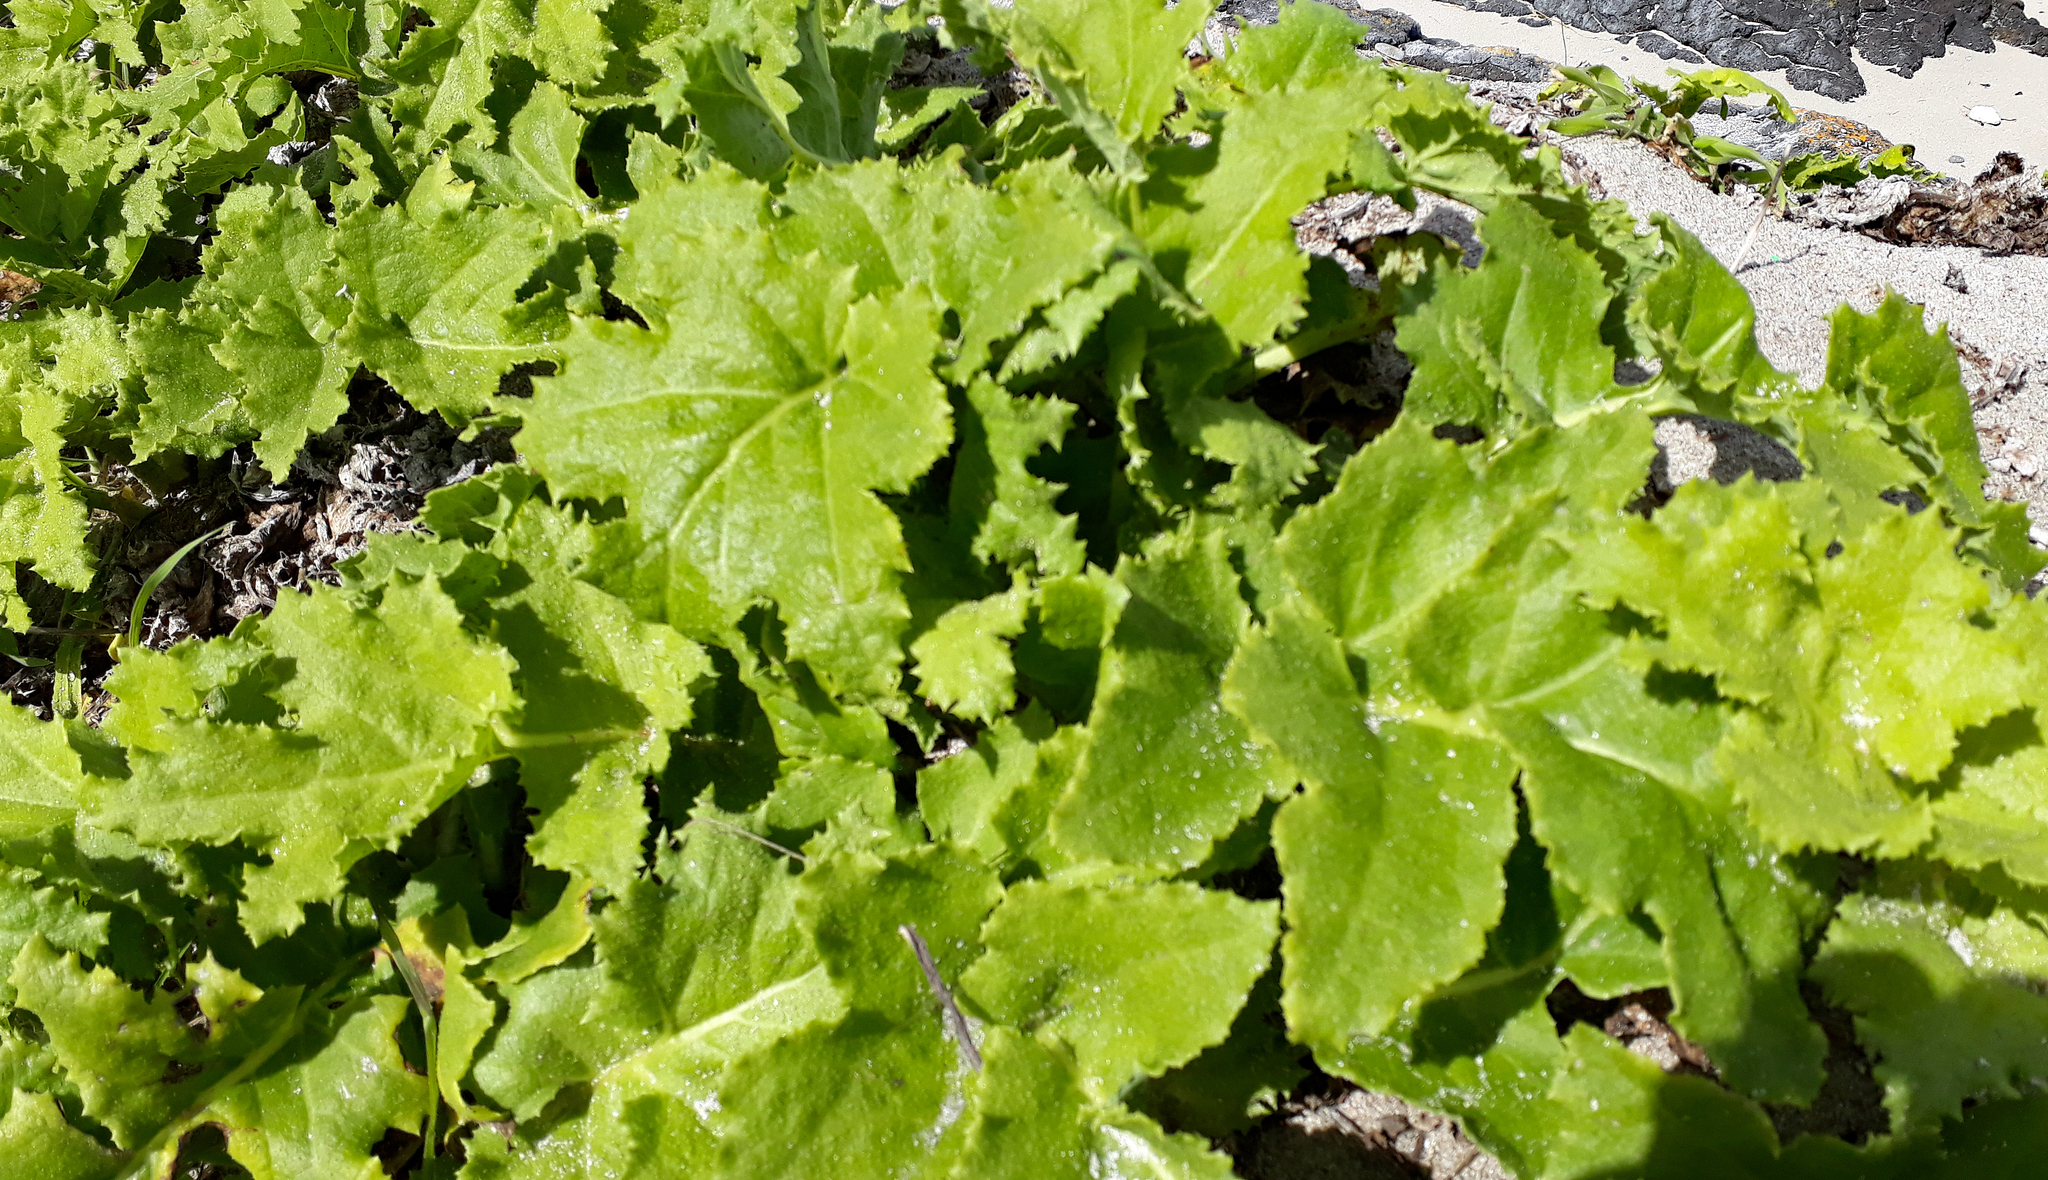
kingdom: Plantae
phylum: Tracheophyta
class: Magnoliopsida
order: Asterales
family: Asteraceae
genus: Sonchus
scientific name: Sonchus grandifolius
